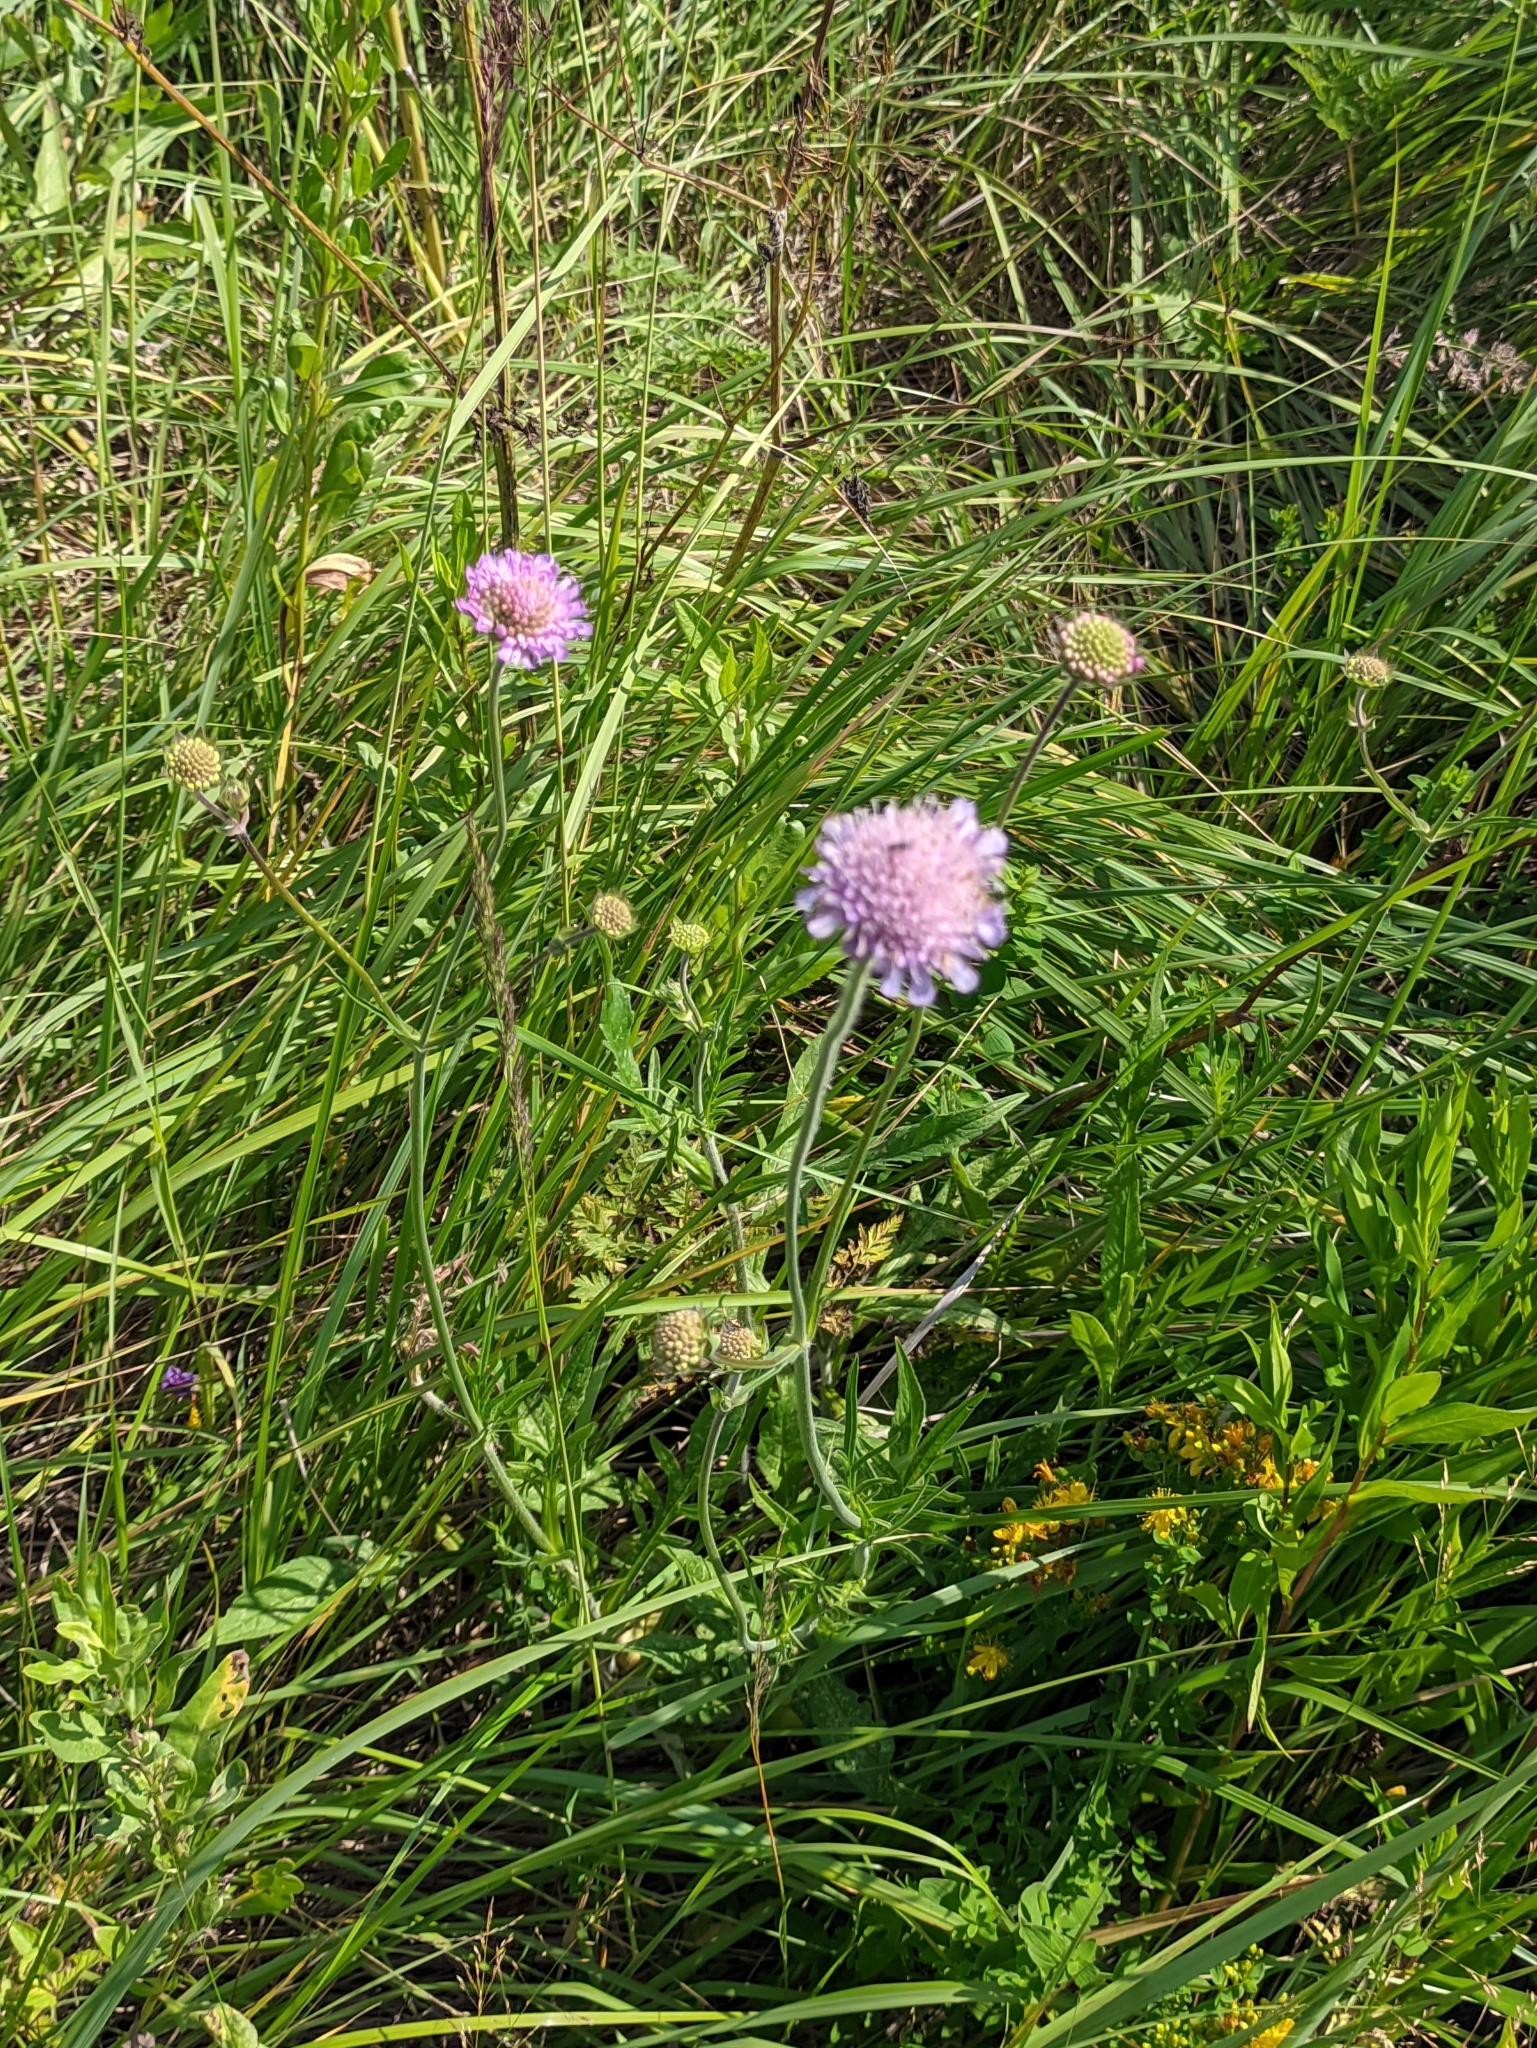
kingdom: Plantae
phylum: Tracheophyta
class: Magnoliopsida
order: Dipsacales
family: Caprifoliaceae
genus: Knautia
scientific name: Knautia arvensis
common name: Field scabiosa
